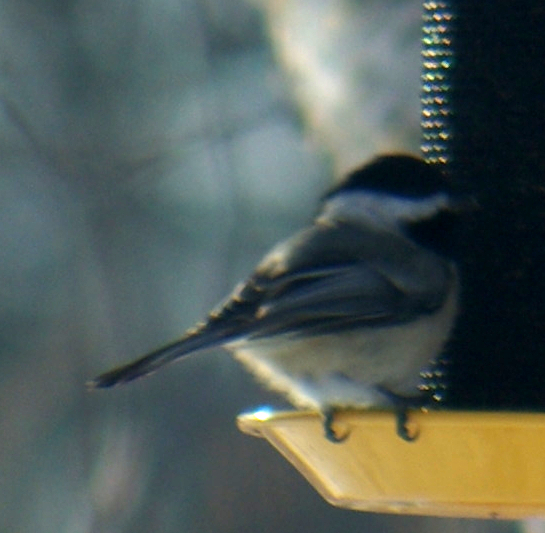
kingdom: Animalia
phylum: Chordata
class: Aves
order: Passeriformes
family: Paridae
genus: Poecile
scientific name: Poecile atricapillus
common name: Black-capped chickadee
